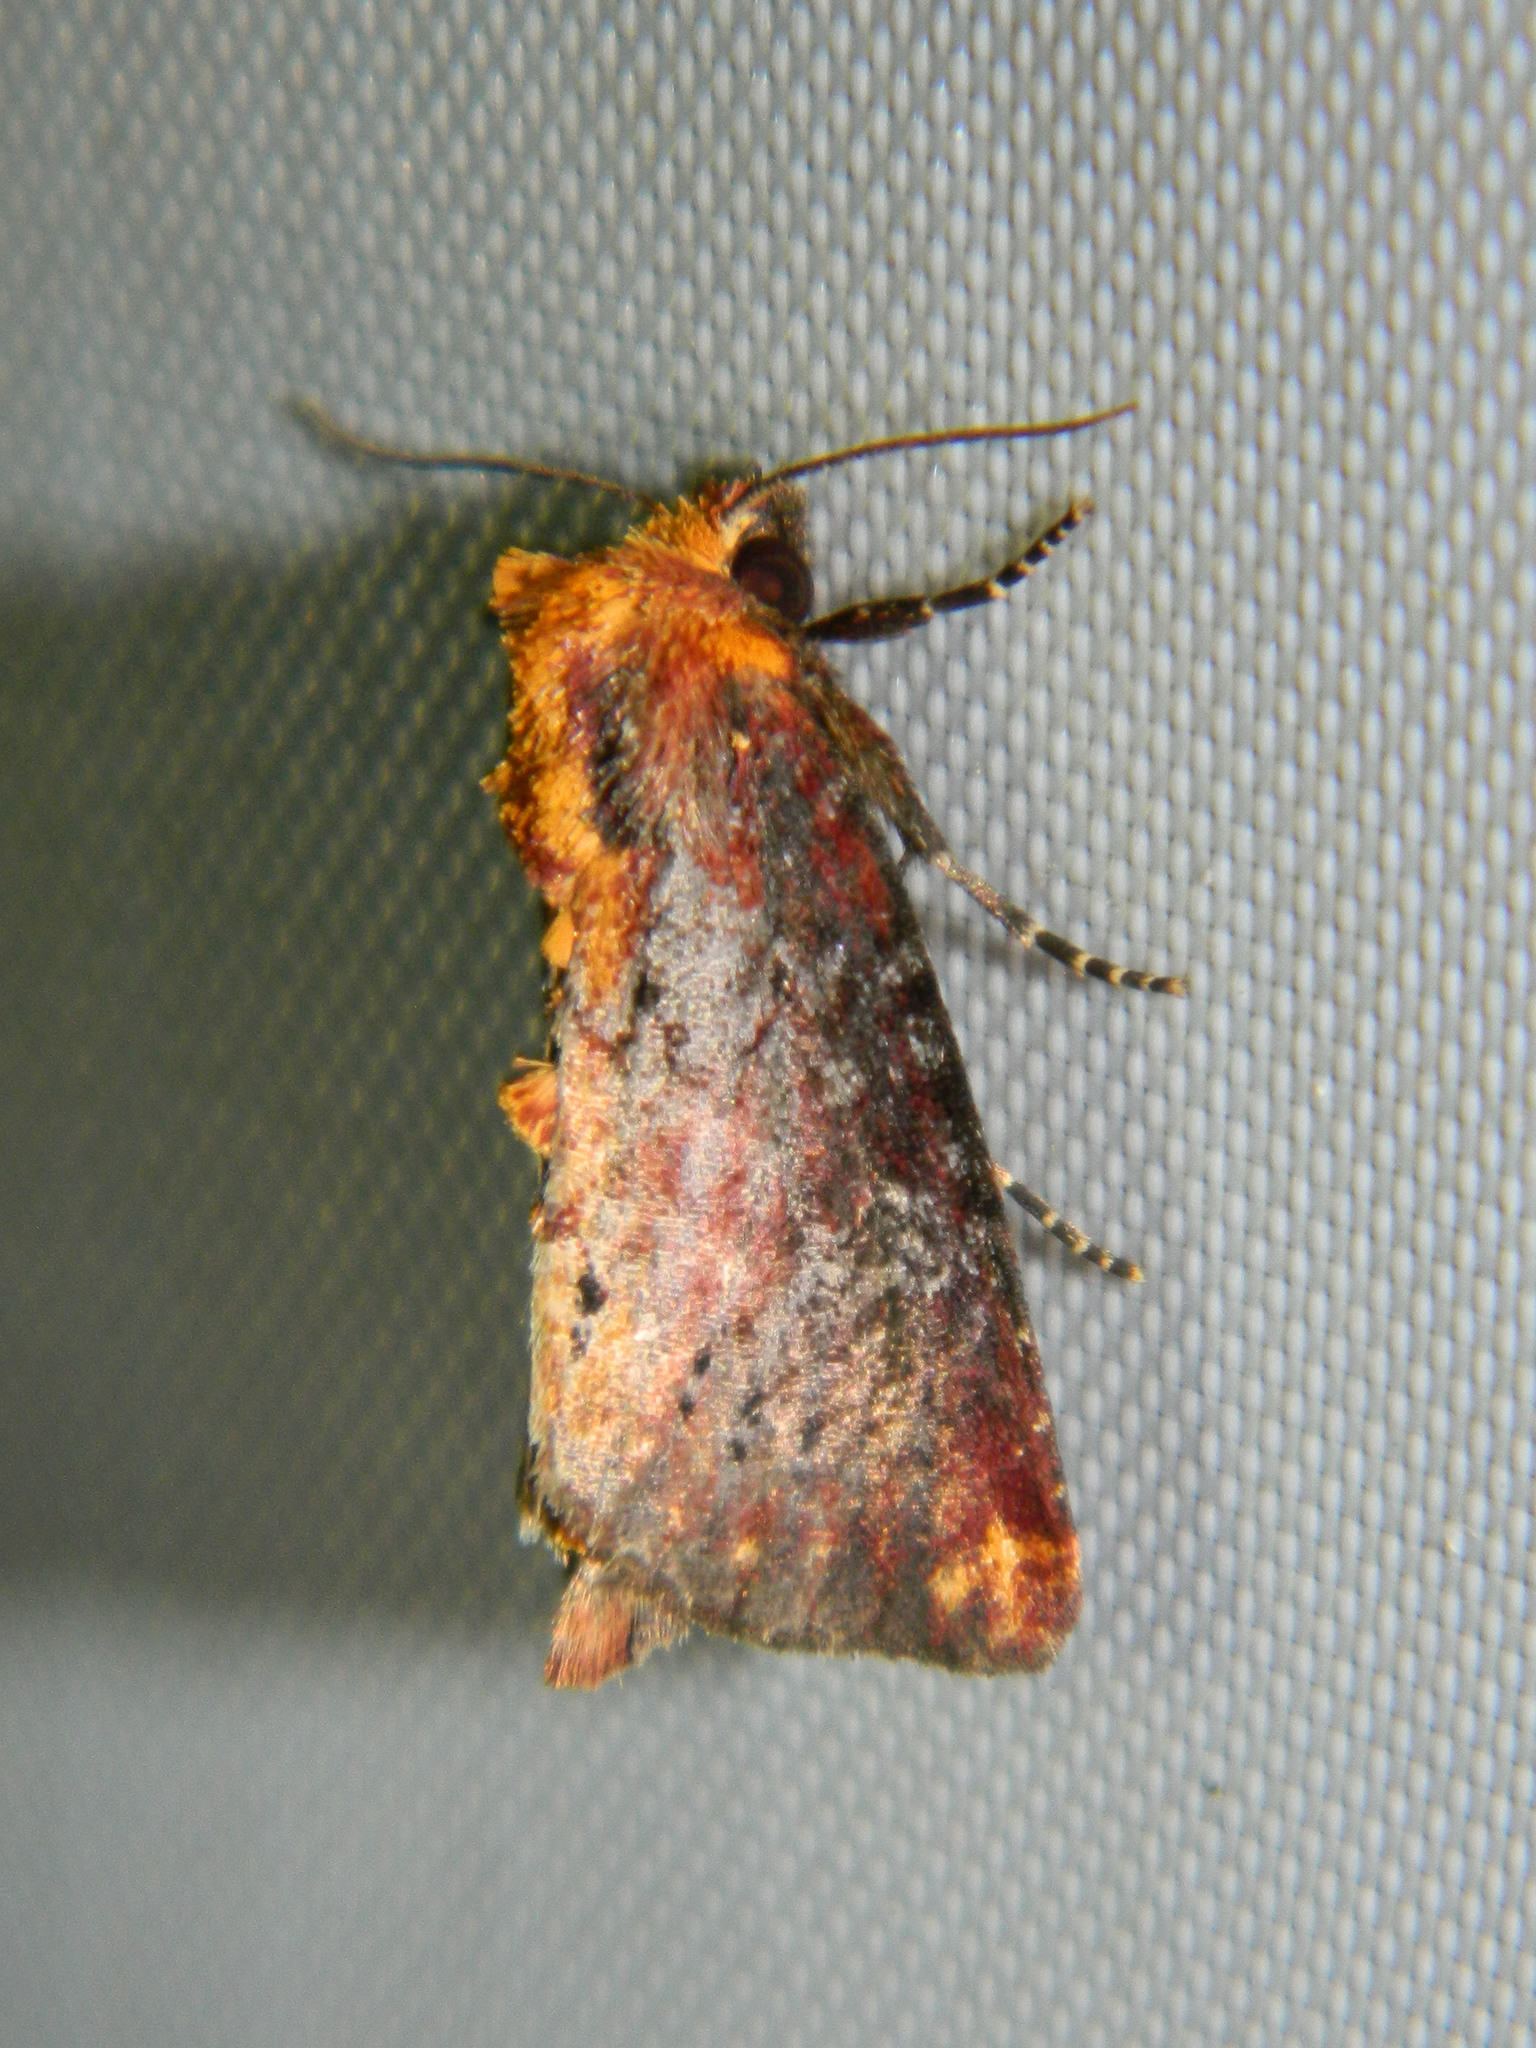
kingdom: Animalia
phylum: Arthropoda
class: Insecta
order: Lepidoptera
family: Noctuidae
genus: Achatodes
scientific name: Achatodes zeae
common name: Elder shoot borer
